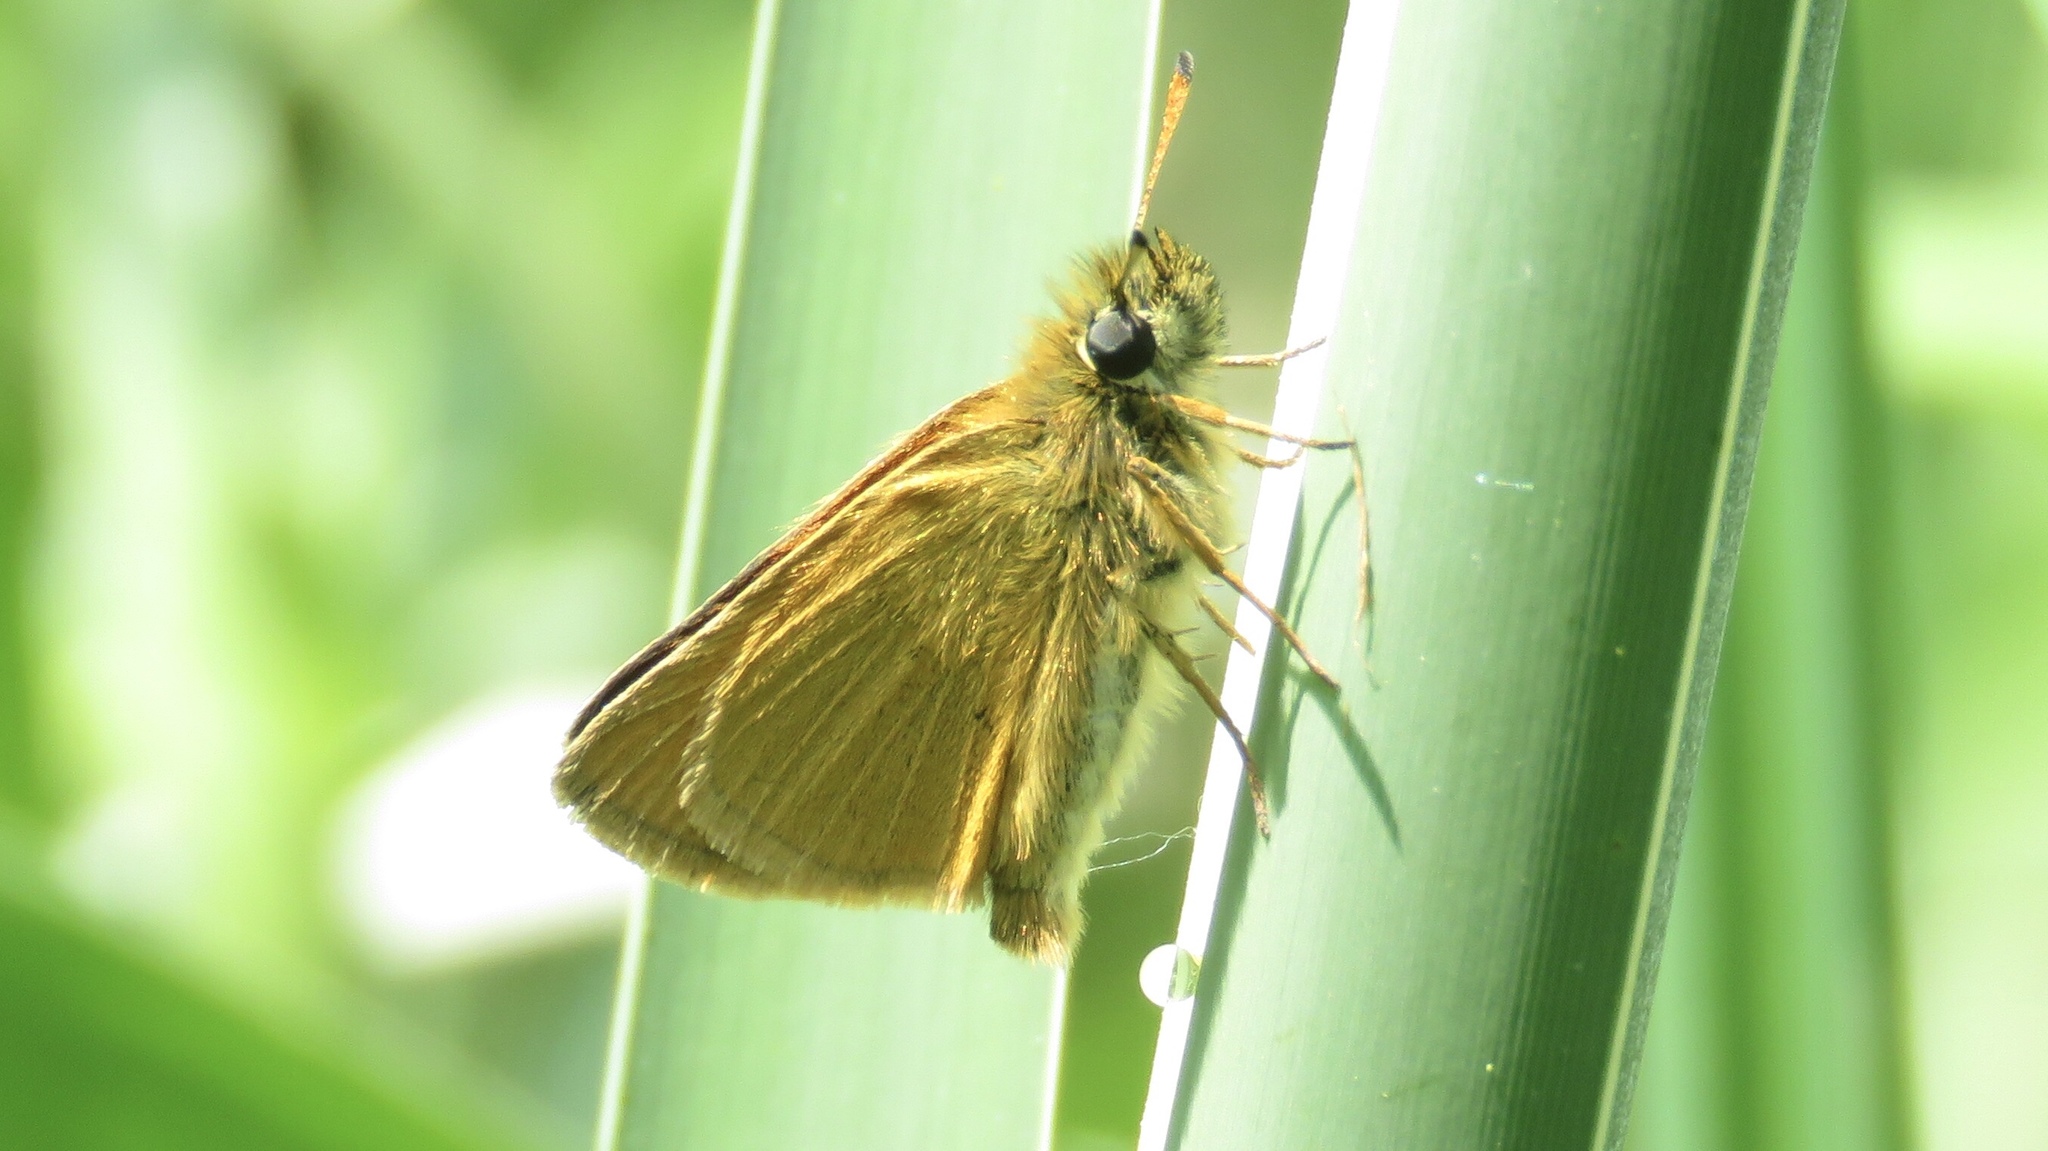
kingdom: Animalia
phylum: Arthropoda
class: Insecta
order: Lepidoptera
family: Hesperiidae
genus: Thymelicus
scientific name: Thymelicus lineola
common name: Essex skipper
